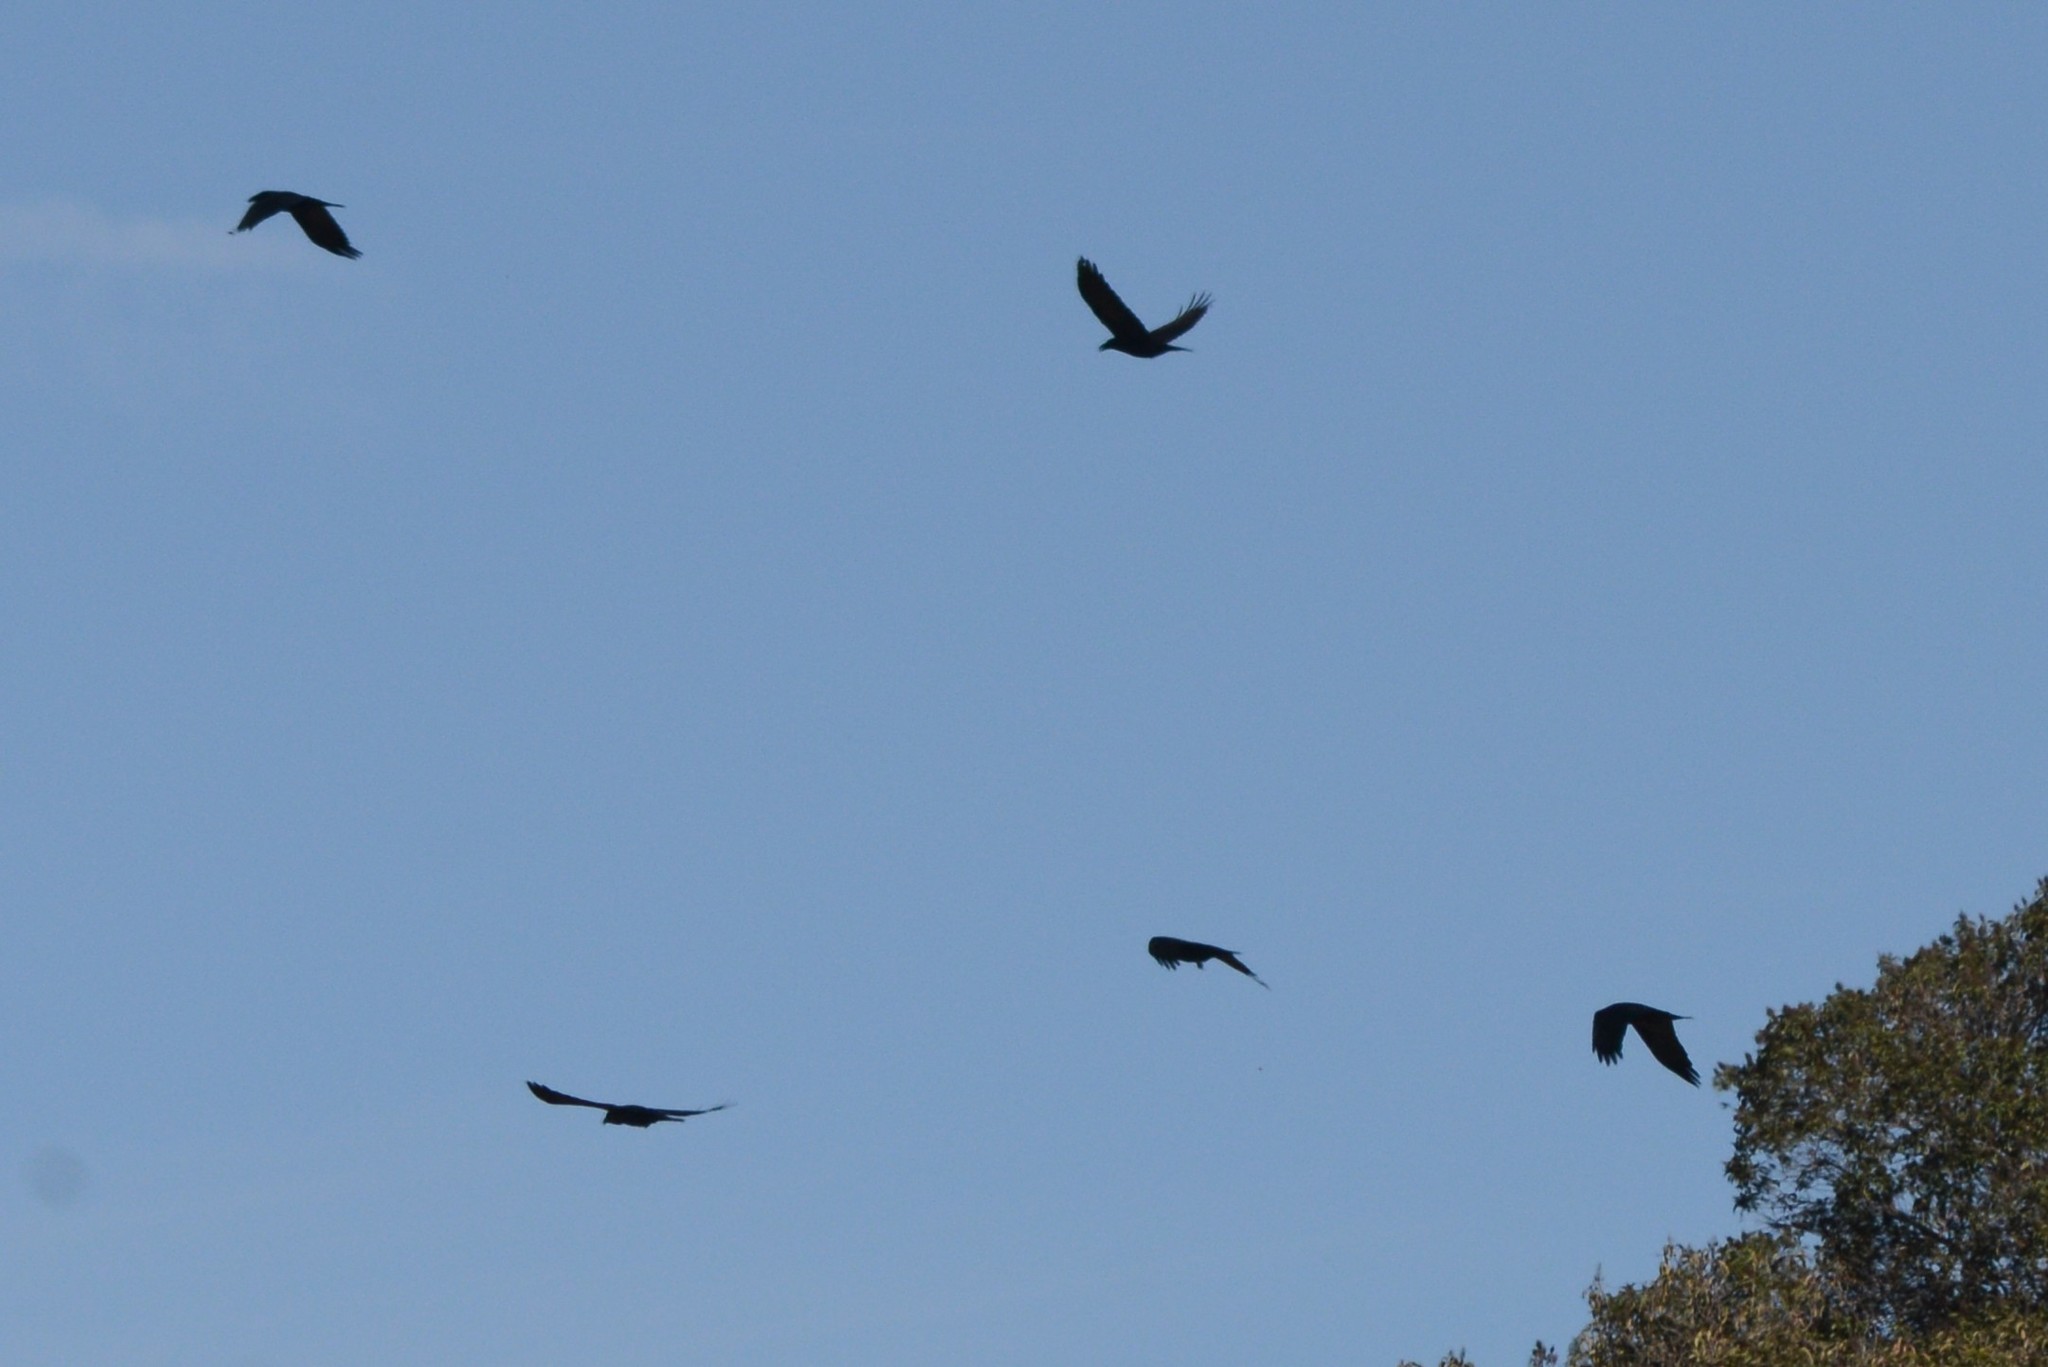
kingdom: Animalia
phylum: Chordata
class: Aves
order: Passeriformes
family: Corvidae
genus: Corvus
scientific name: Corvus brachyrhynchos
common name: American crow
